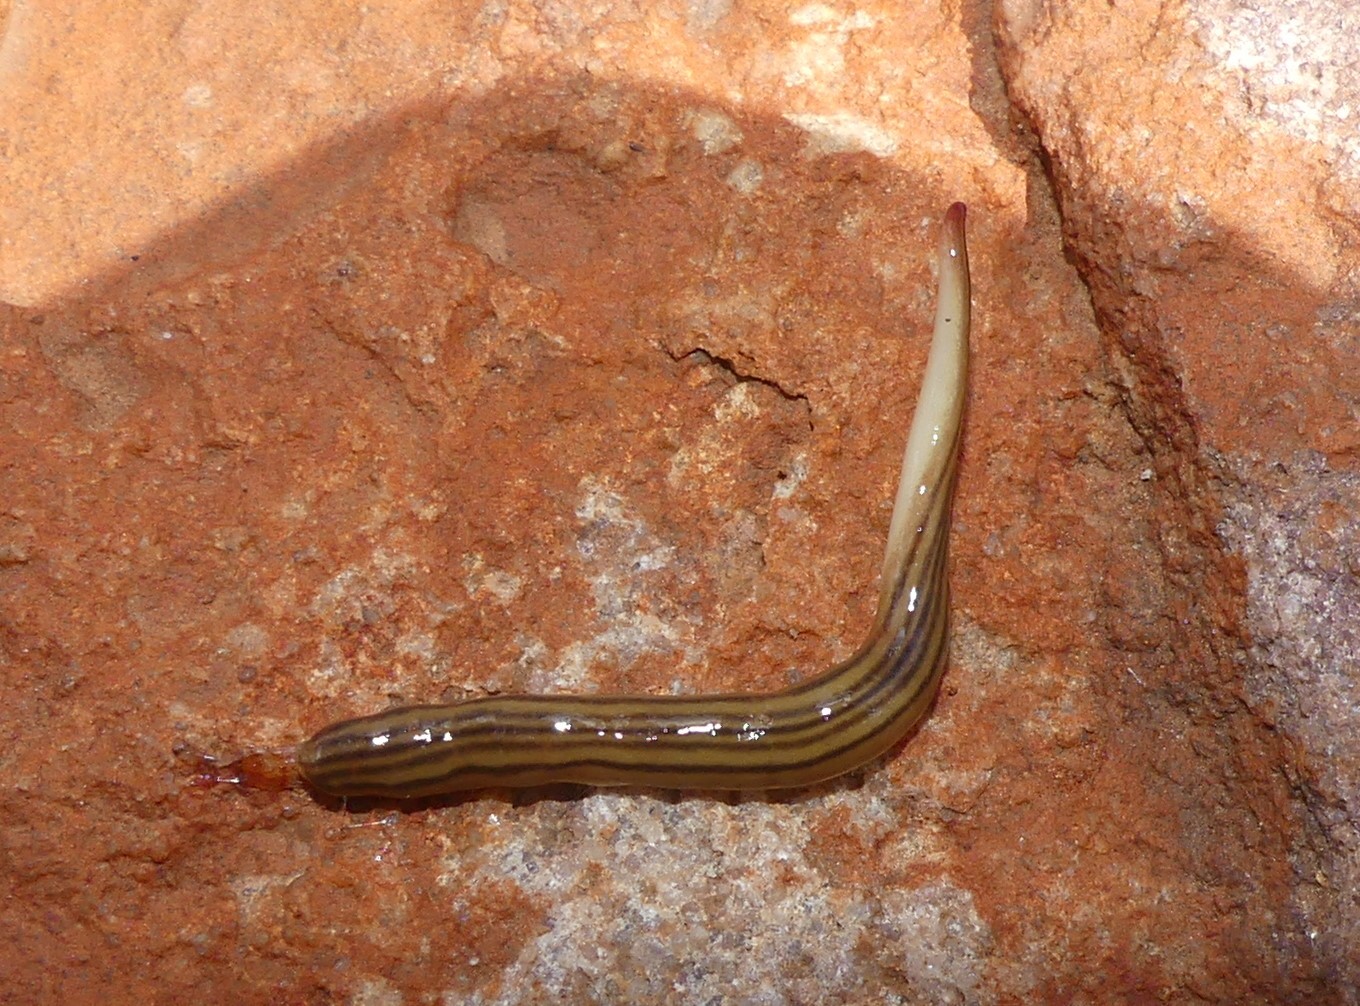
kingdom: Animalia
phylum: Platyhelminthes
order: Tricladida
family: Geoplanidae
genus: Fletchamia
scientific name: Fletchamia quinquelineata
